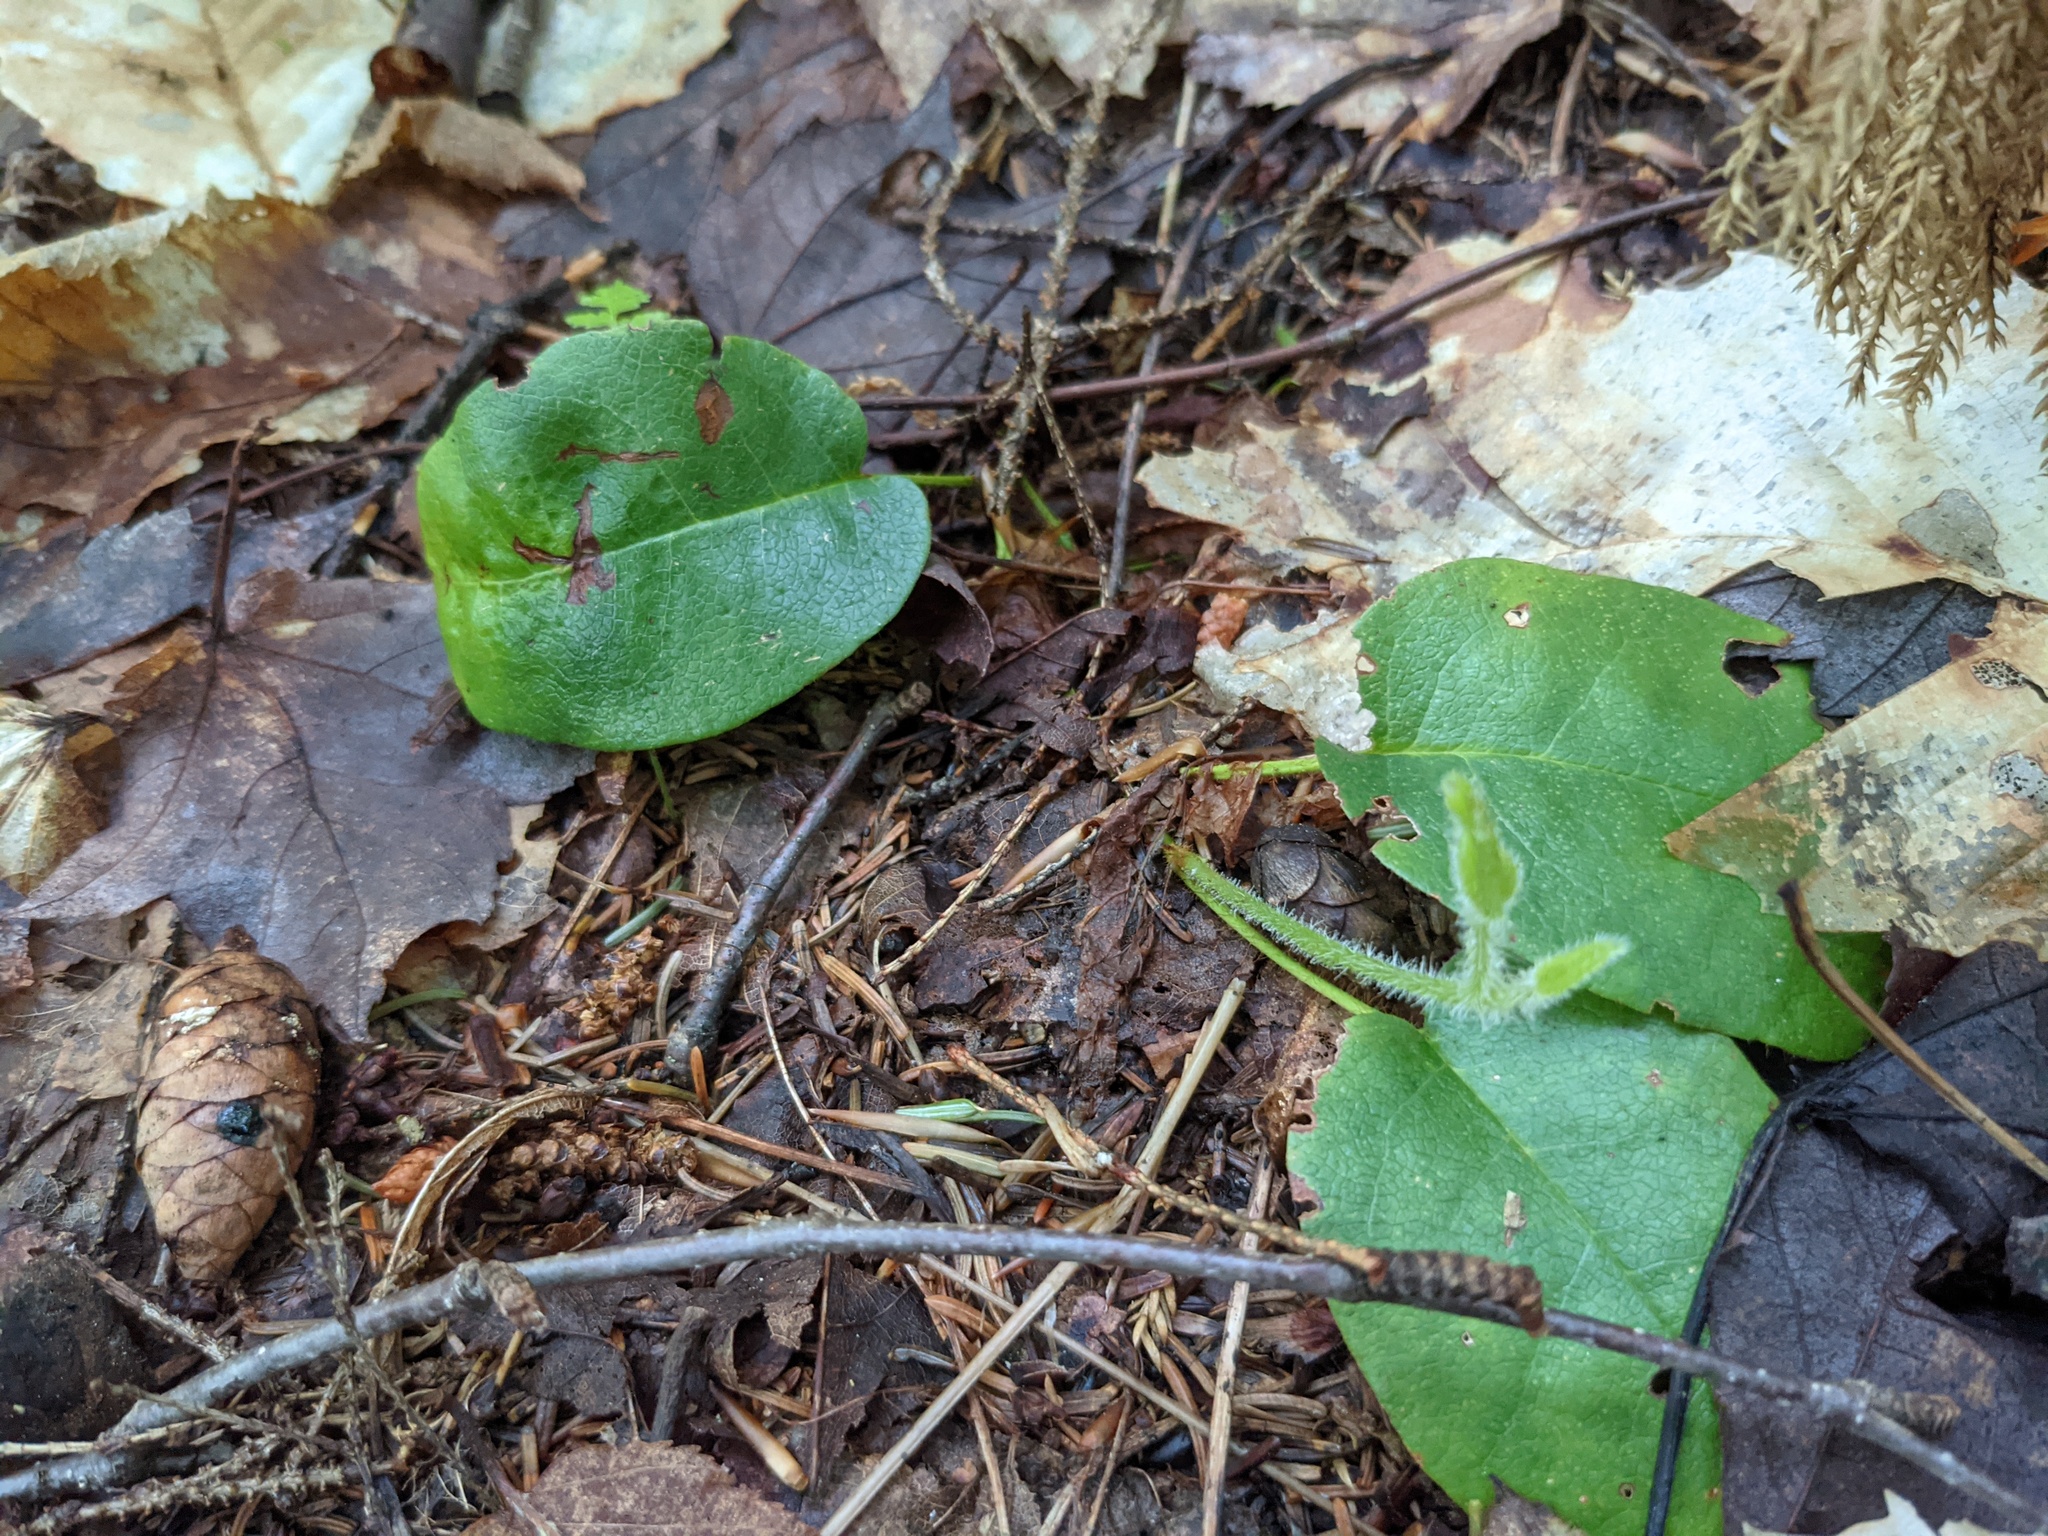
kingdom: Plantae
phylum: Tracheophyta
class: Magnoliopsida
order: Ericales
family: Ericaceae
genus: Epigaea
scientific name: Epigaea repens
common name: Gravelroot
